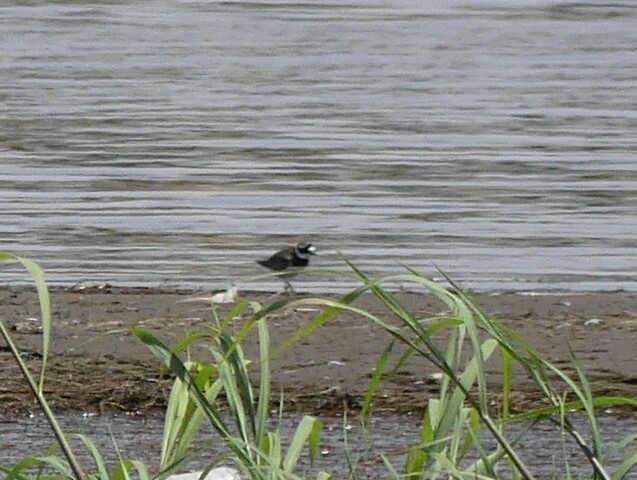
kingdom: Animalia
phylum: Chordata
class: Aves
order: Charadriiformes
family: Charadriidae
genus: Charadrius
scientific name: Charadrius hiaticula
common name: Common ringed plover
